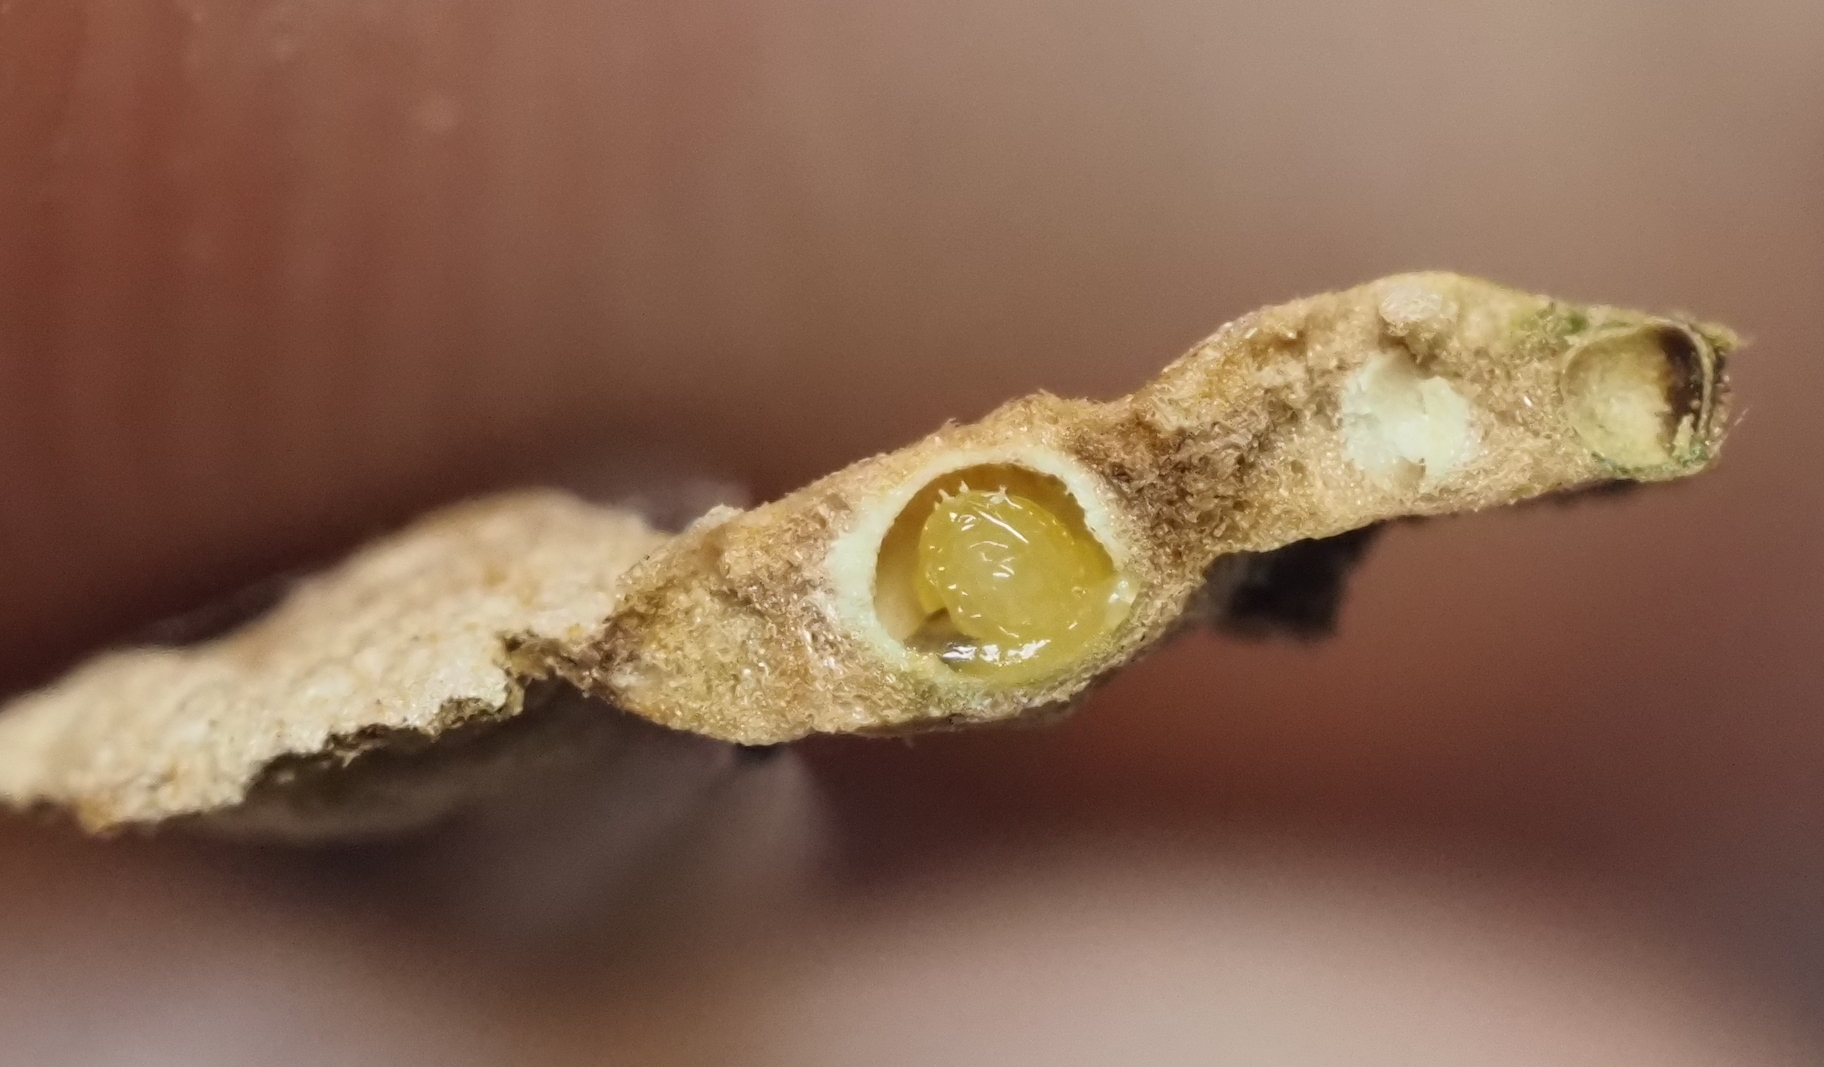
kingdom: Animalia
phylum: Arthropoda
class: Insecta
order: Hymenoptera
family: Cynipidae
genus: Neuroterus
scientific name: Neuroterus bussae
